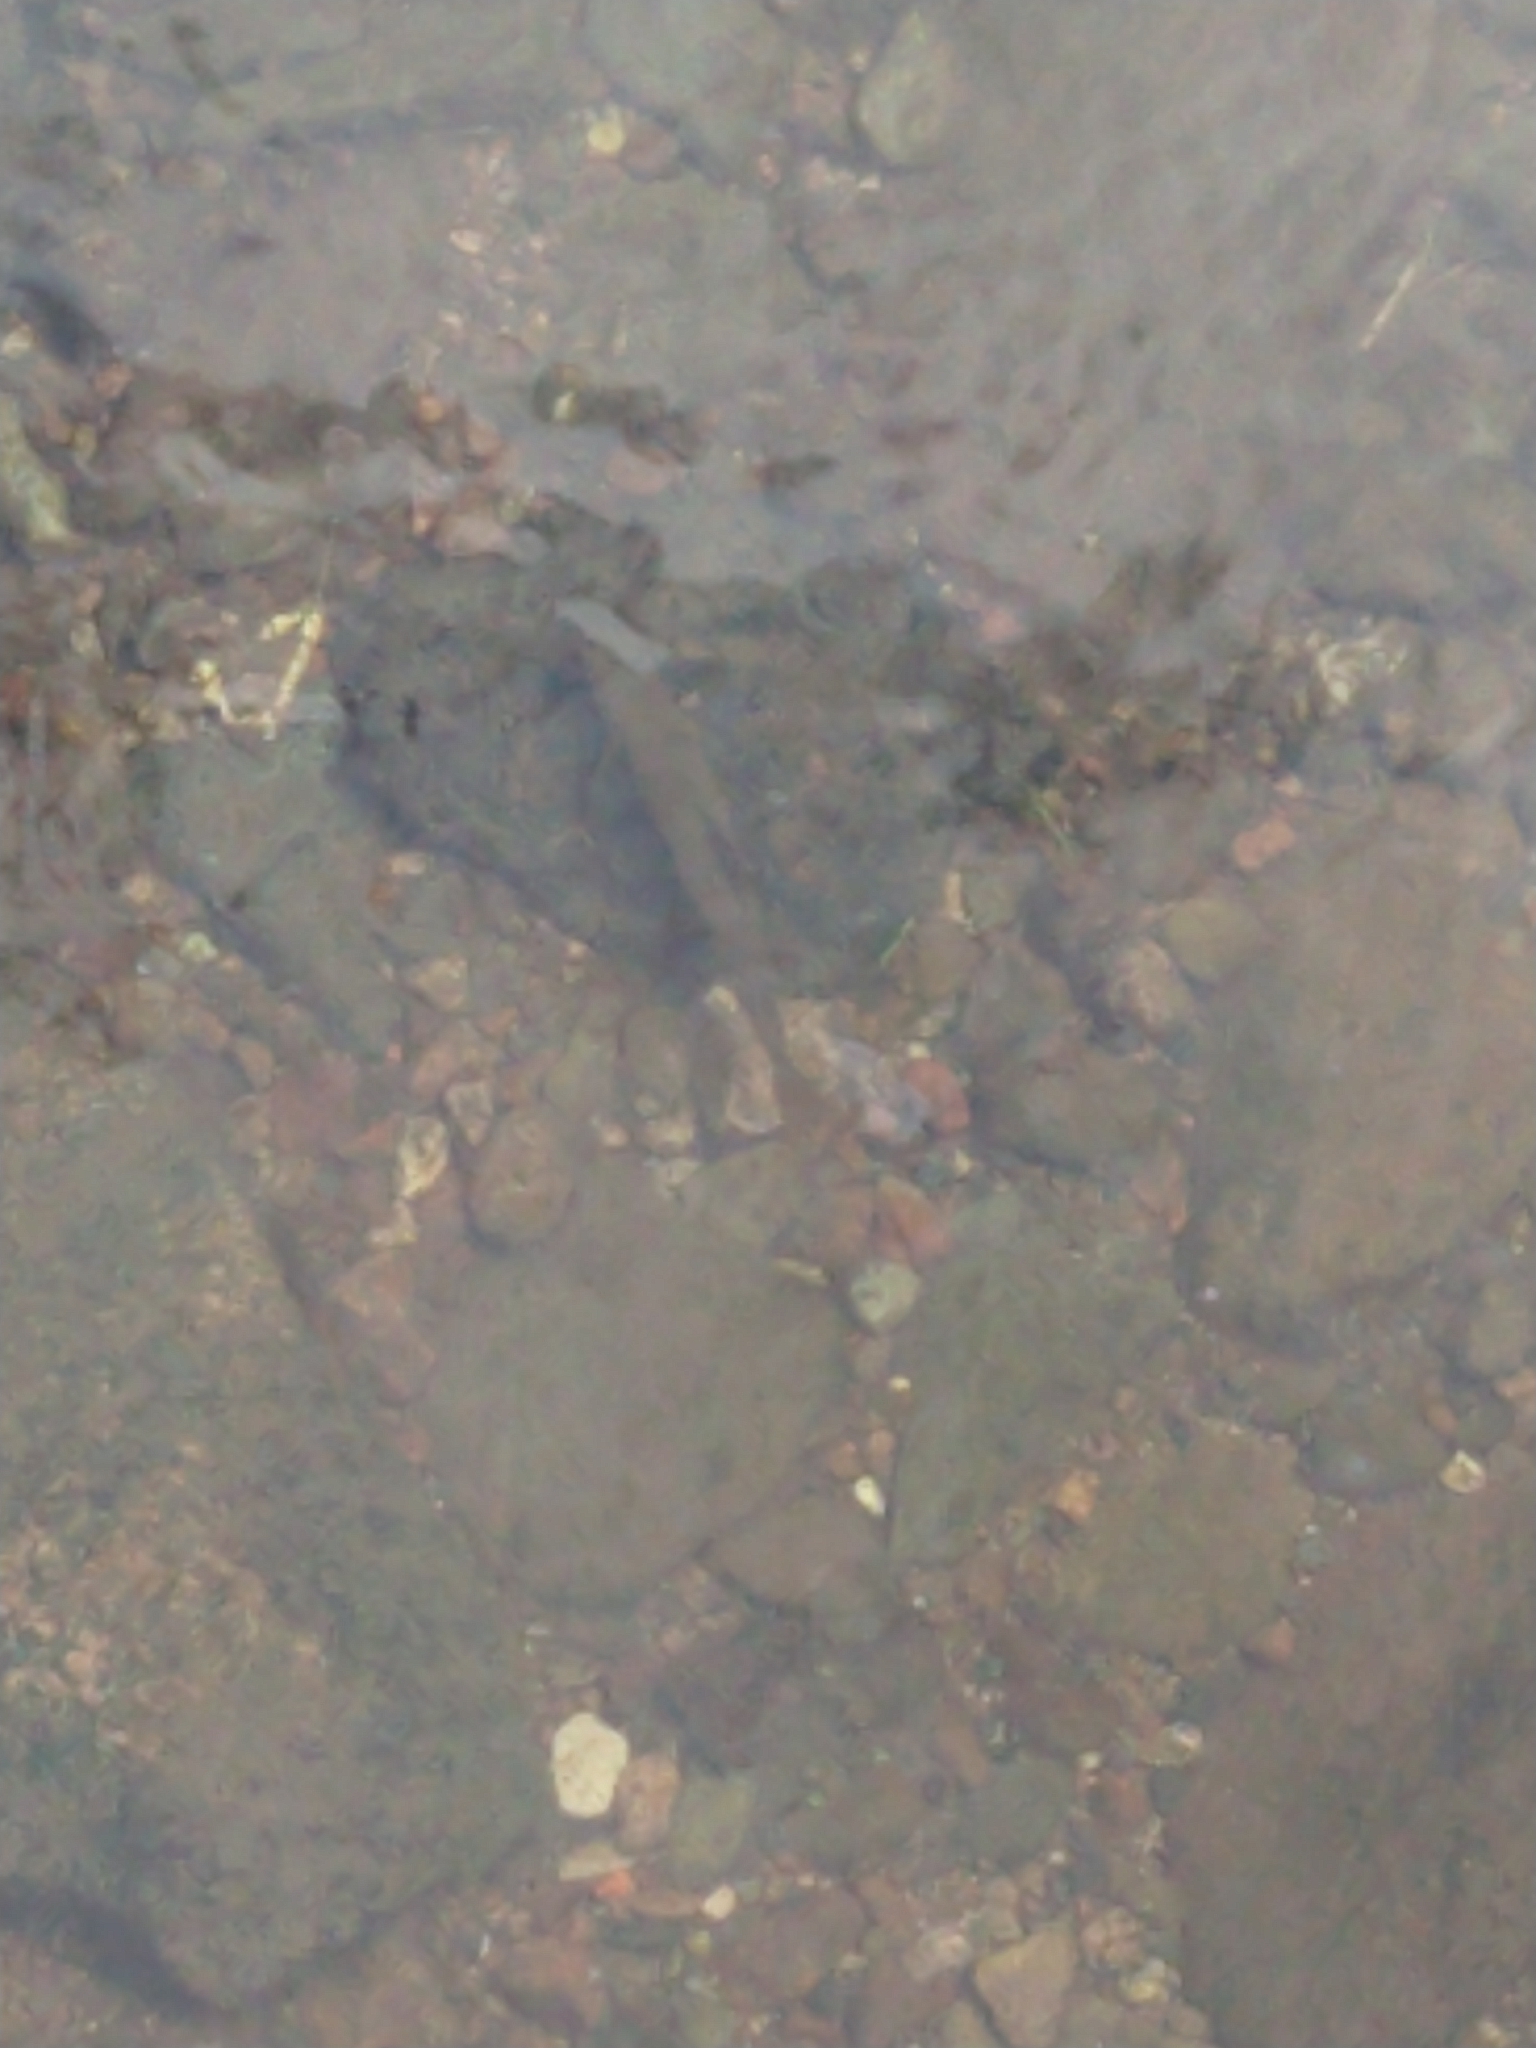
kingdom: Animalia
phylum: Chordata
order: Salmoniformes
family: Salmonidae
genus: Salmo
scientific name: Salmo trutta
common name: Brown trout
